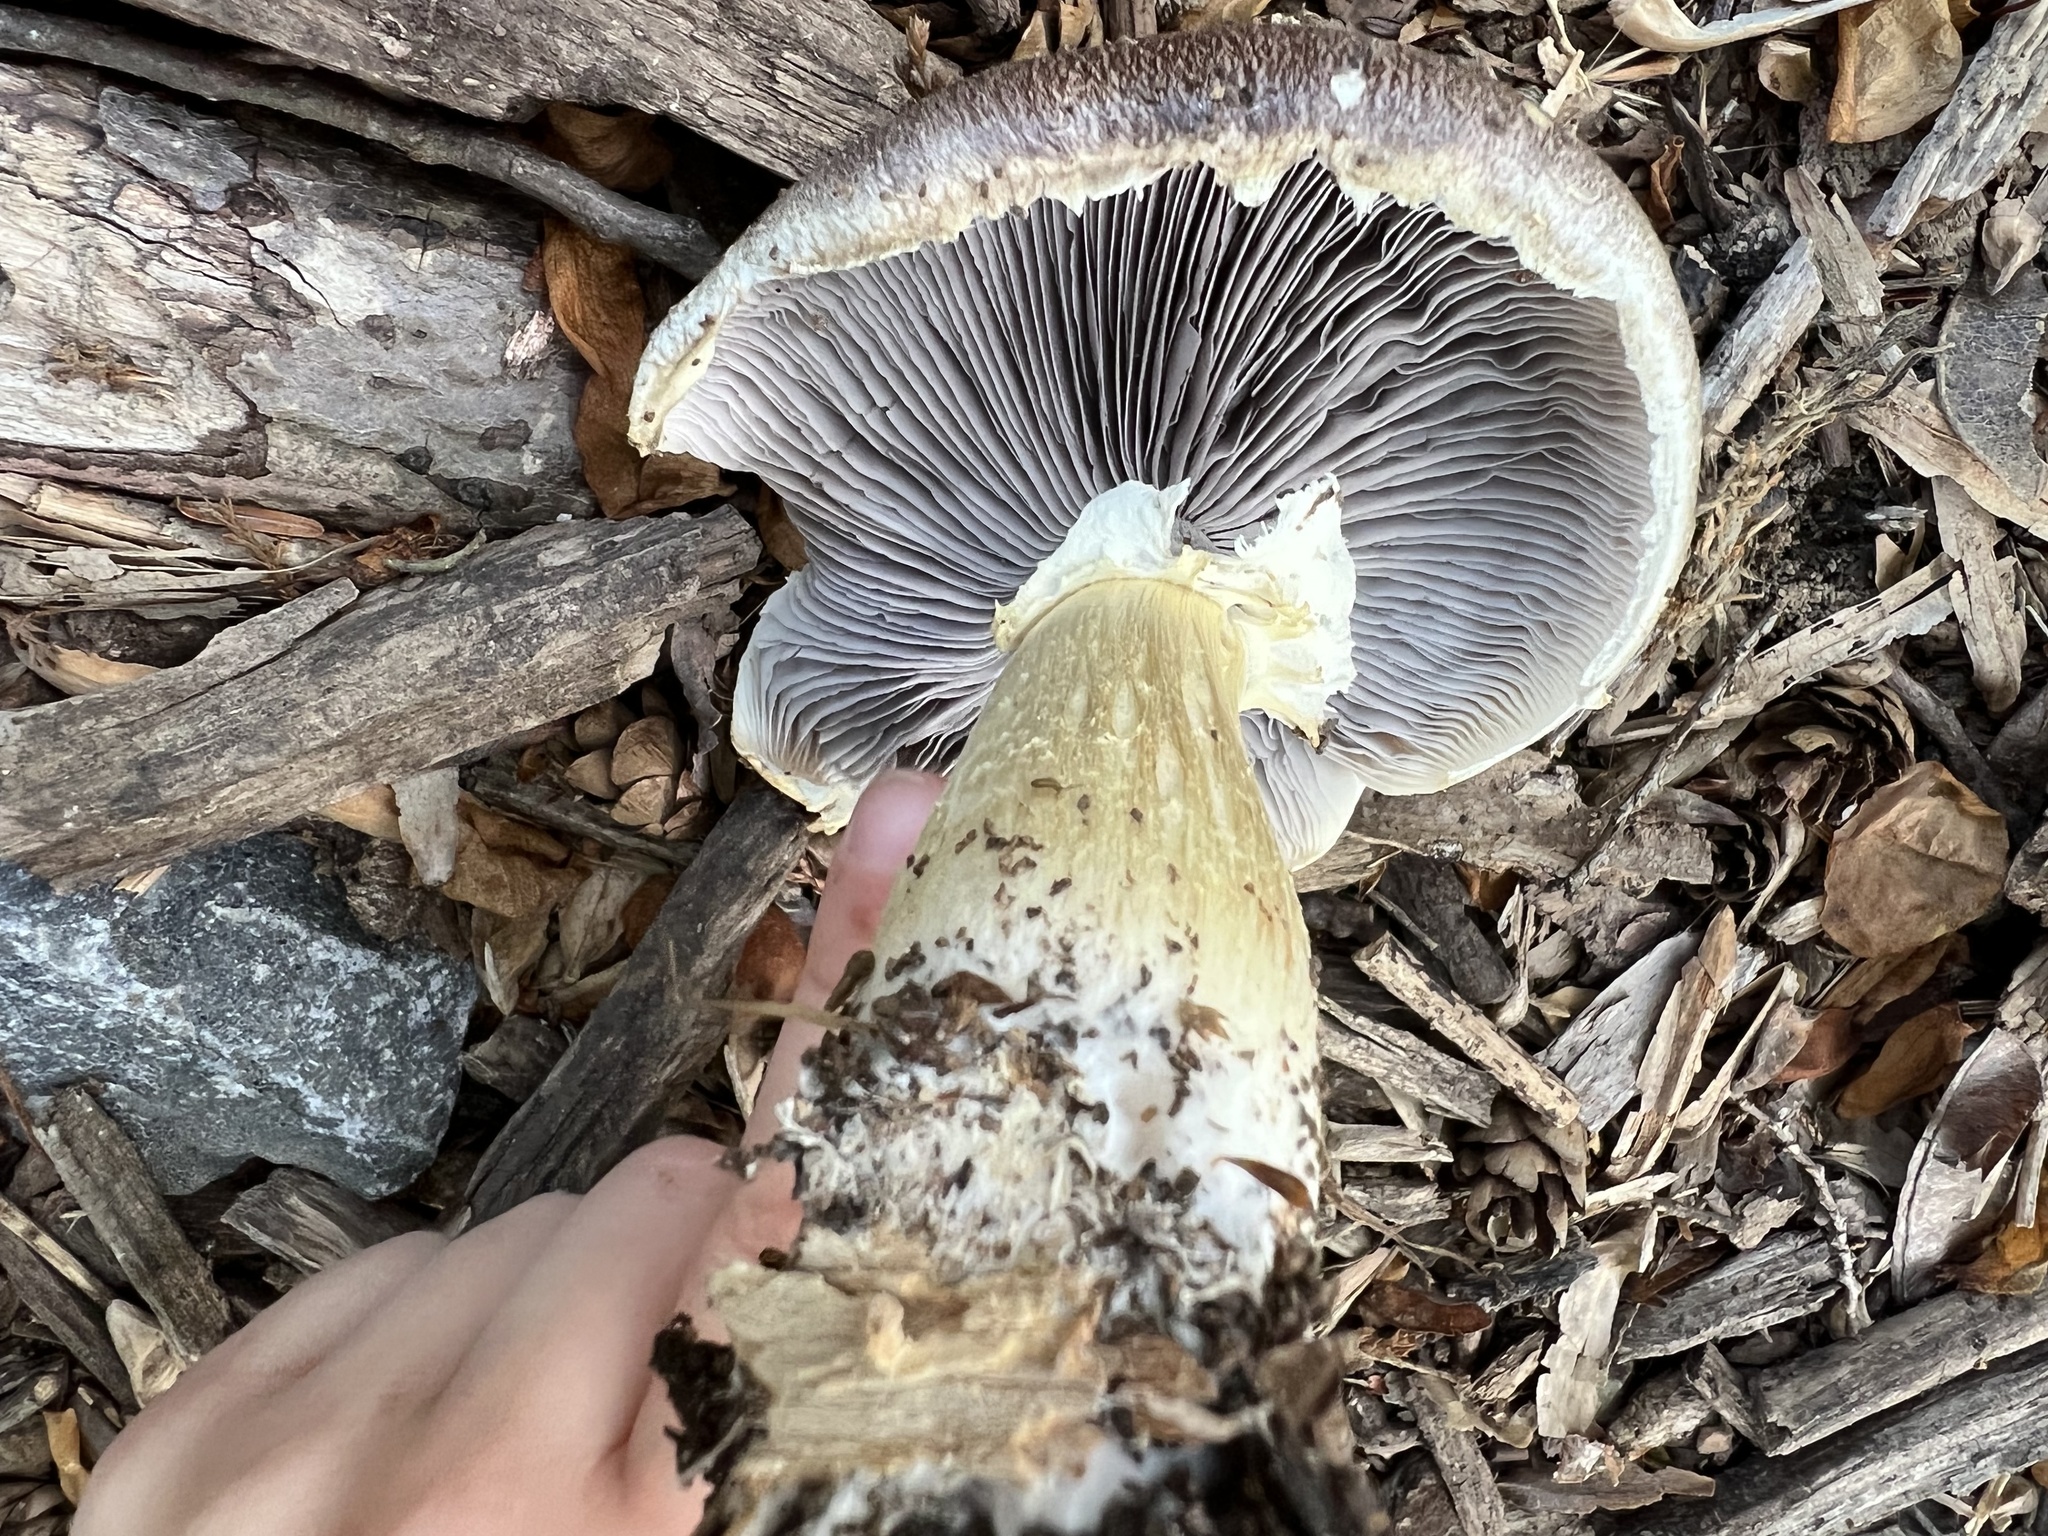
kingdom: Fungi
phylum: Basidiomycota
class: Agaricomycetes
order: Agaricales
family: Strophariaceae
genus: Stropharia
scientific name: Stropharia rugosoannulata
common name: Wine roundhead
